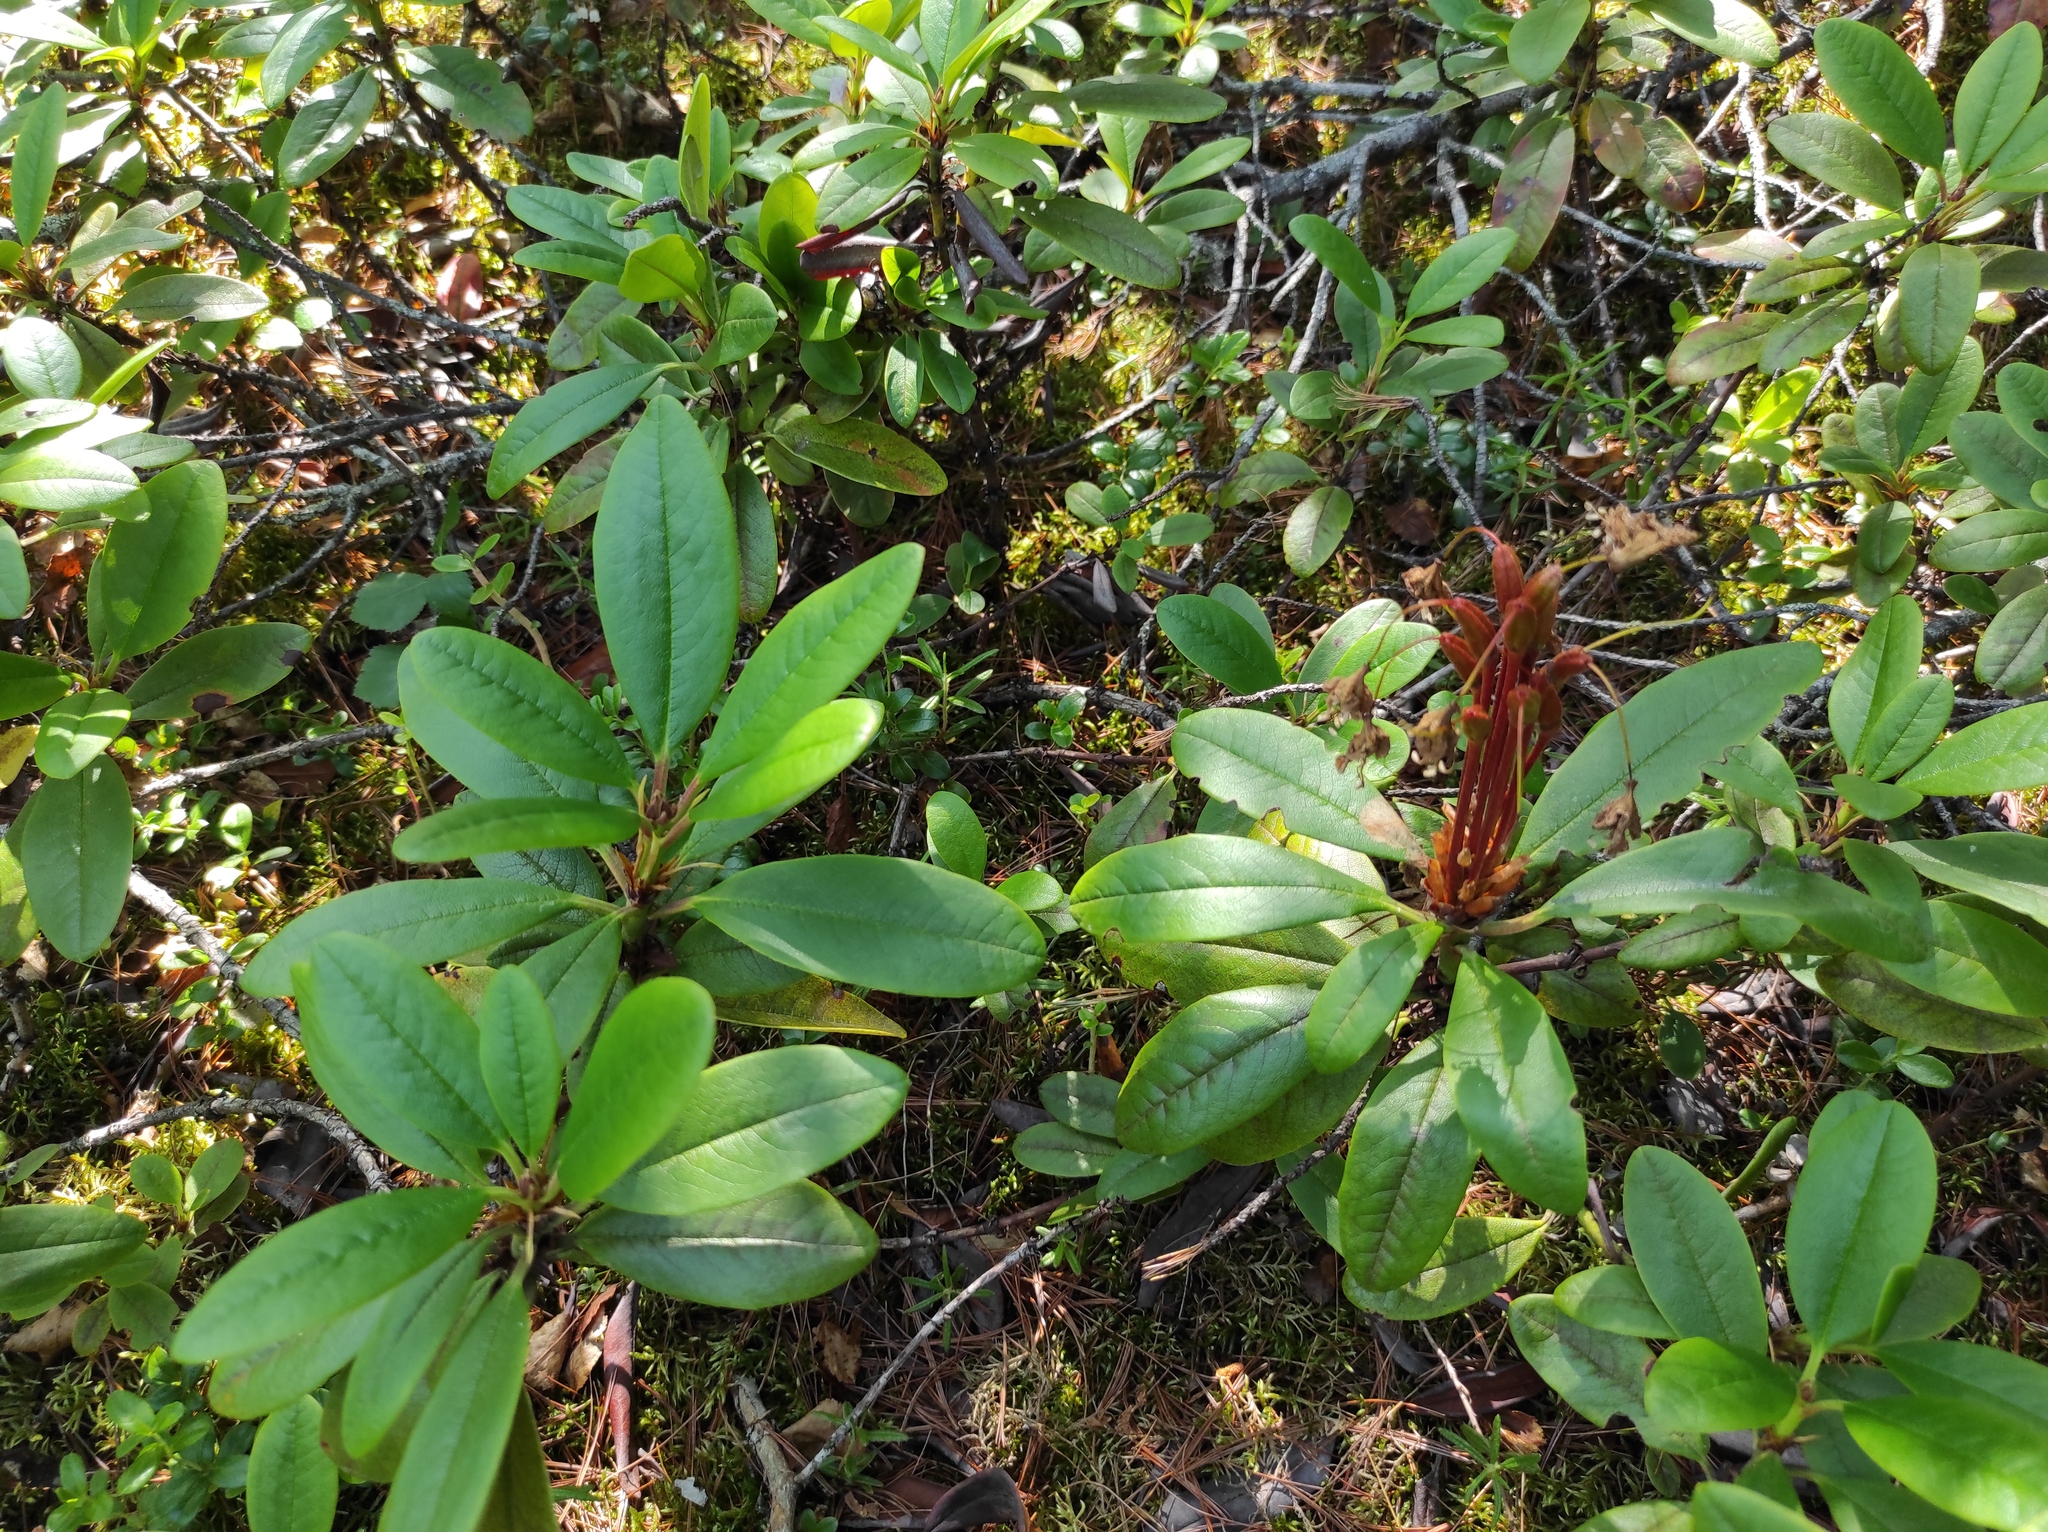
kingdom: Plantae
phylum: Tracheophyta
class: Magnoliopsida
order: Ericales
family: Ericaceae
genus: Rhododendron
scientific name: Rhododendron aureum
